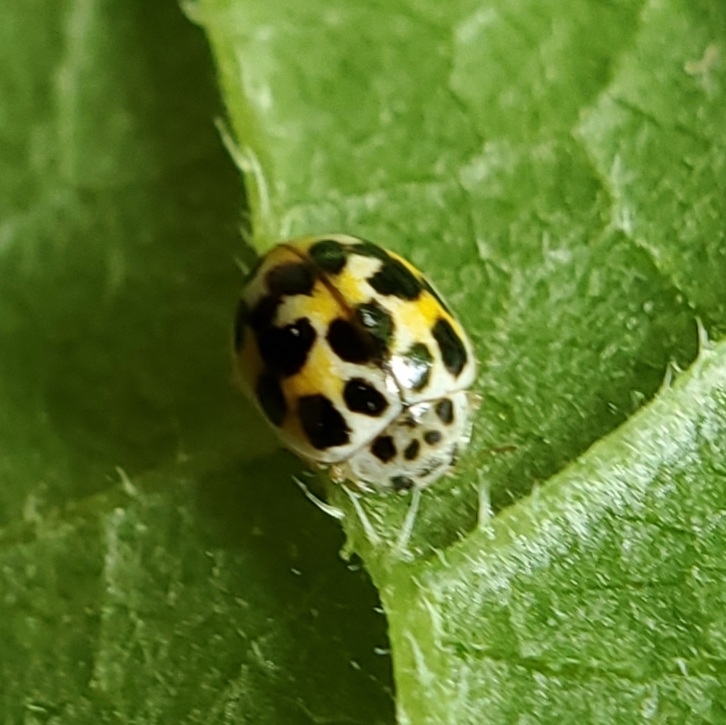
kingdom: Animalia
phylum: Arthropoda
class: Insecta
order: Coleoptera
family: Coccinellidae
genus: Psyllobora
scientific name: Psyllobora vigintimaculata
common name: Ladybird beetle
